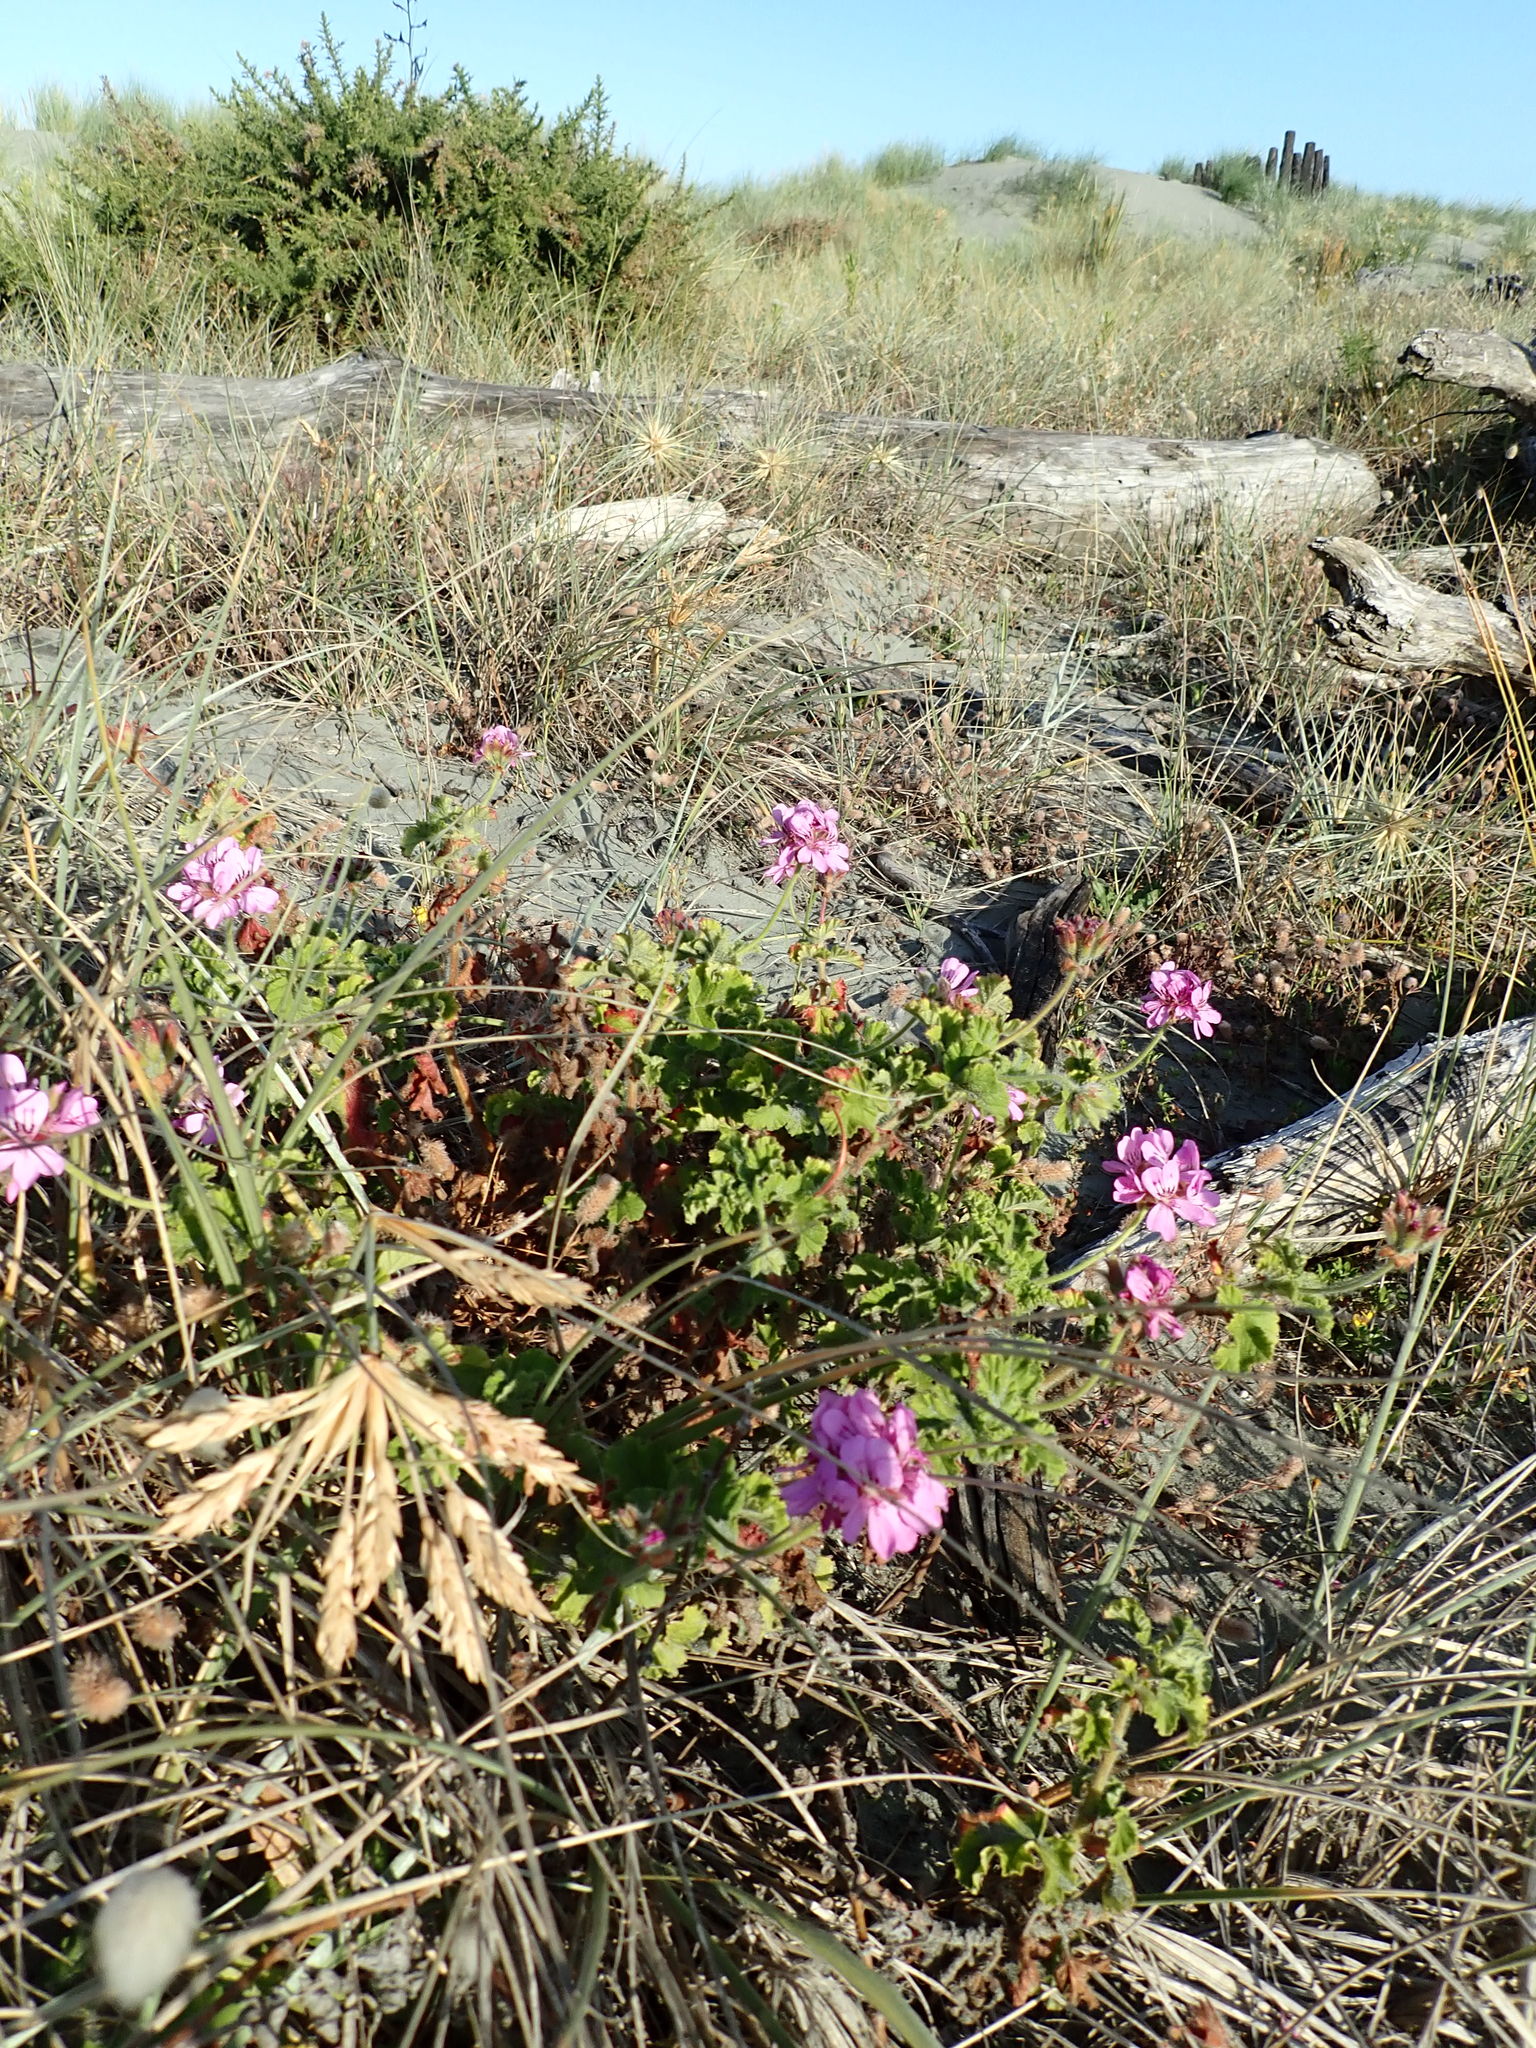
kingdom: Plantae
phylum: Tracheophyta
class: Magnoliopsida
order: Geraniales
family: Geraniaceae
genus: Pelargonium
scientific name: Pelargonium capitatum
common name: Rose scented geranium
